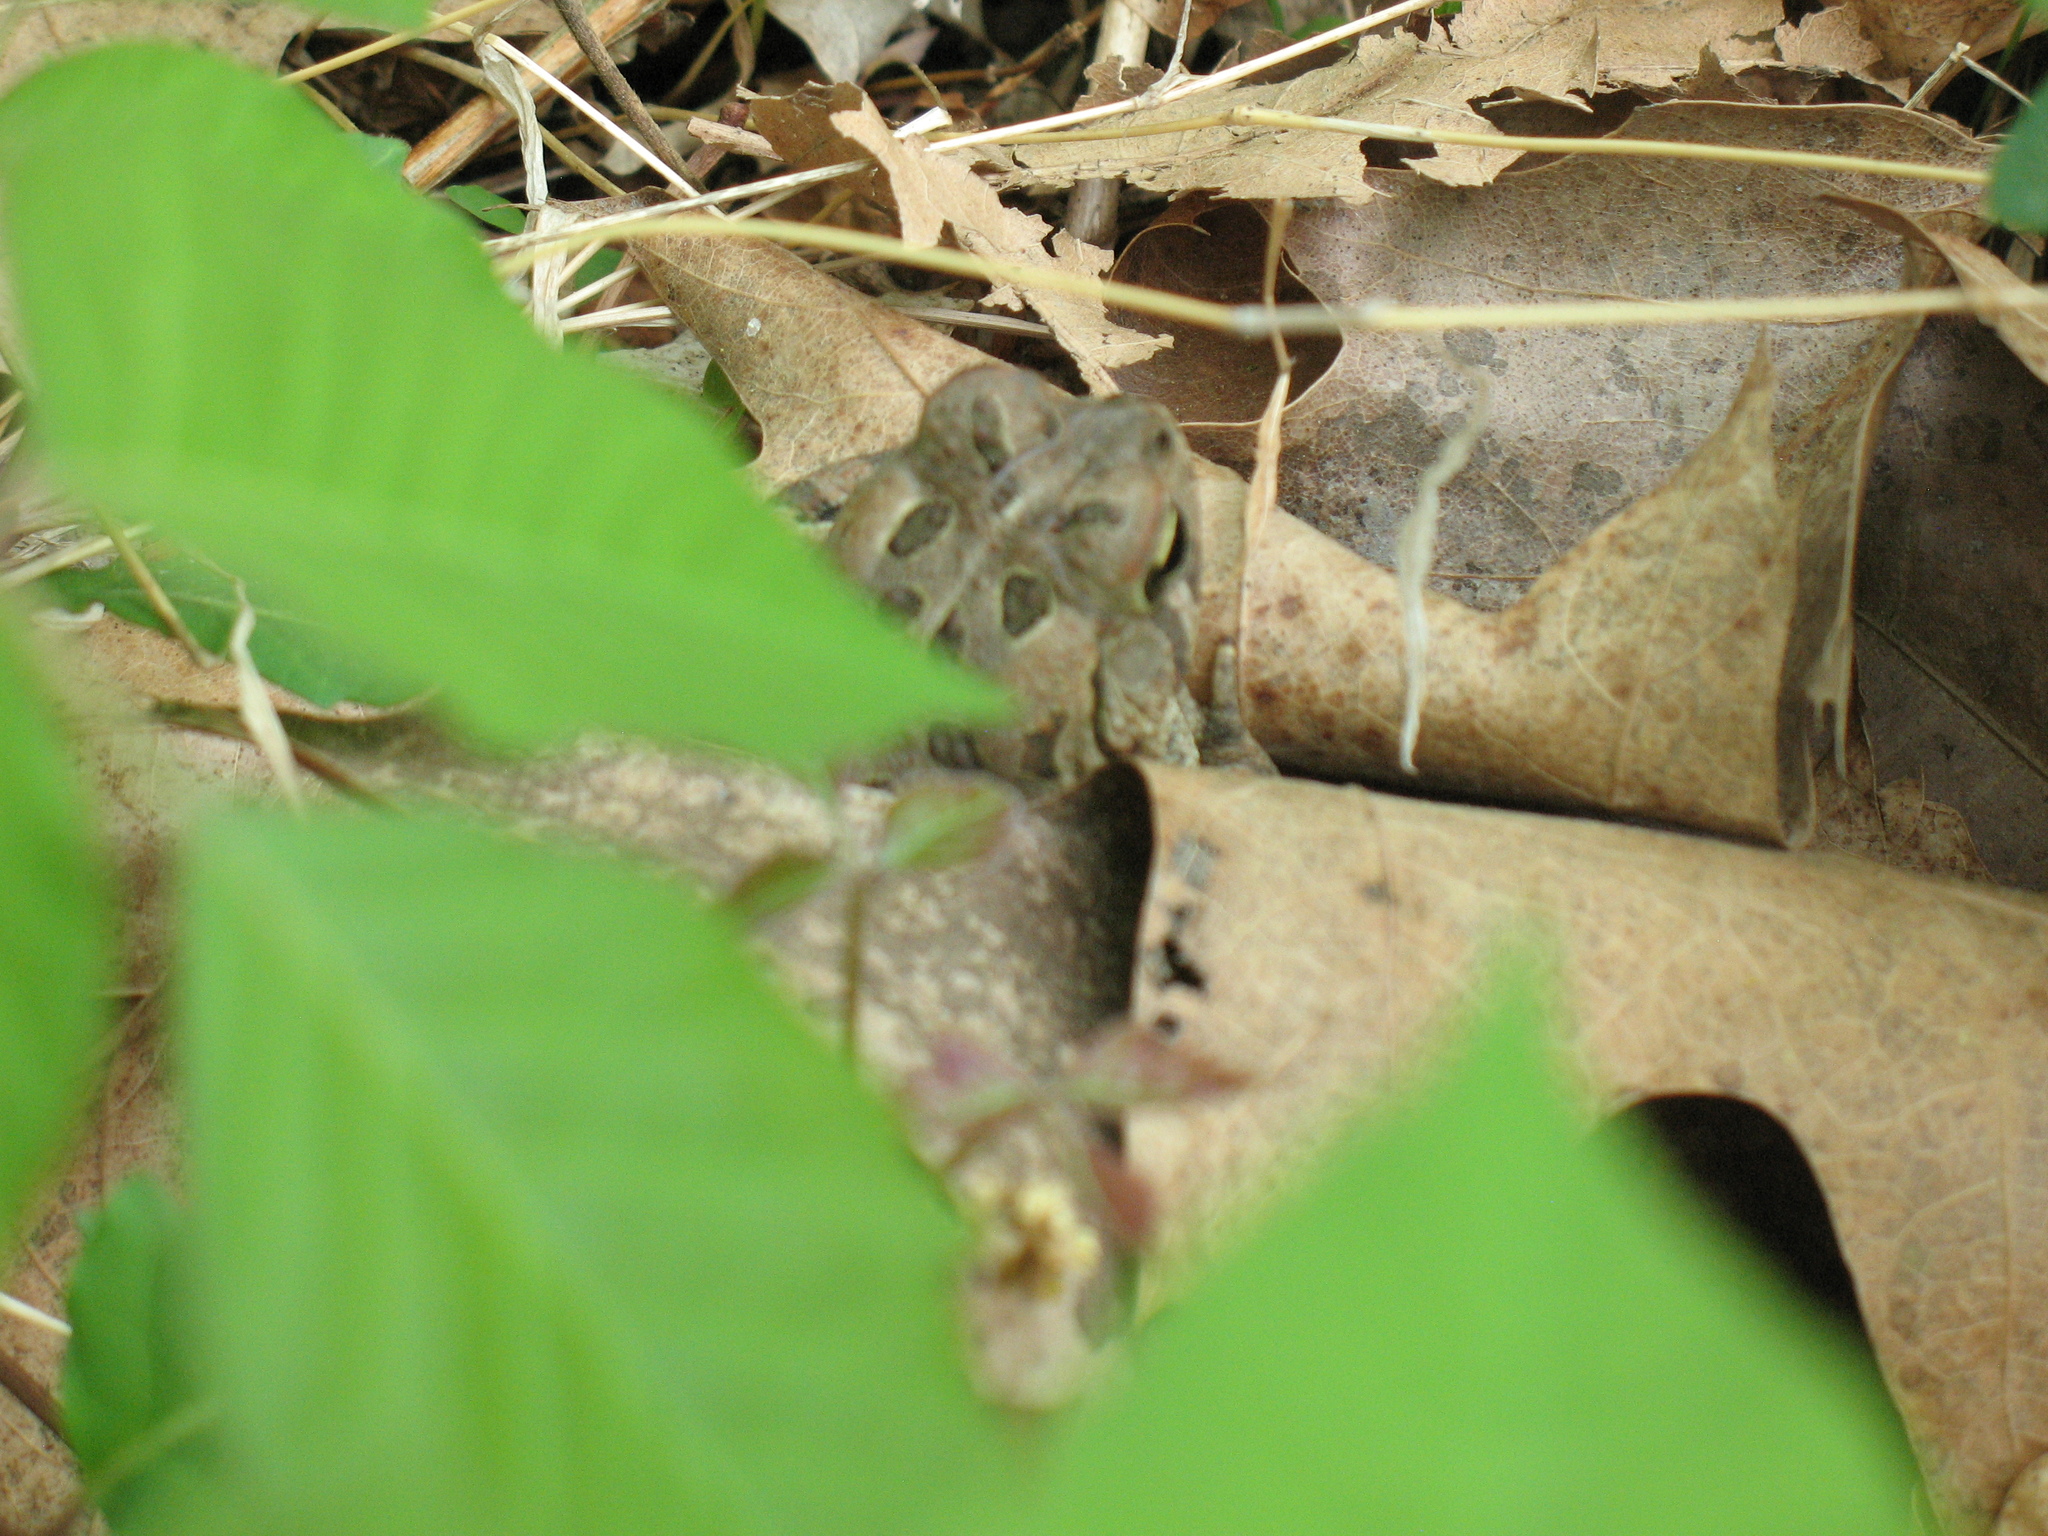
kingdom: Animalia
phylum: Chordata
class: Amphibia
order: Anura
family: Bufonidae
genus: Anaxyrus
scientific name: Anaxyrus fowleri
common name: Fowler's toad
